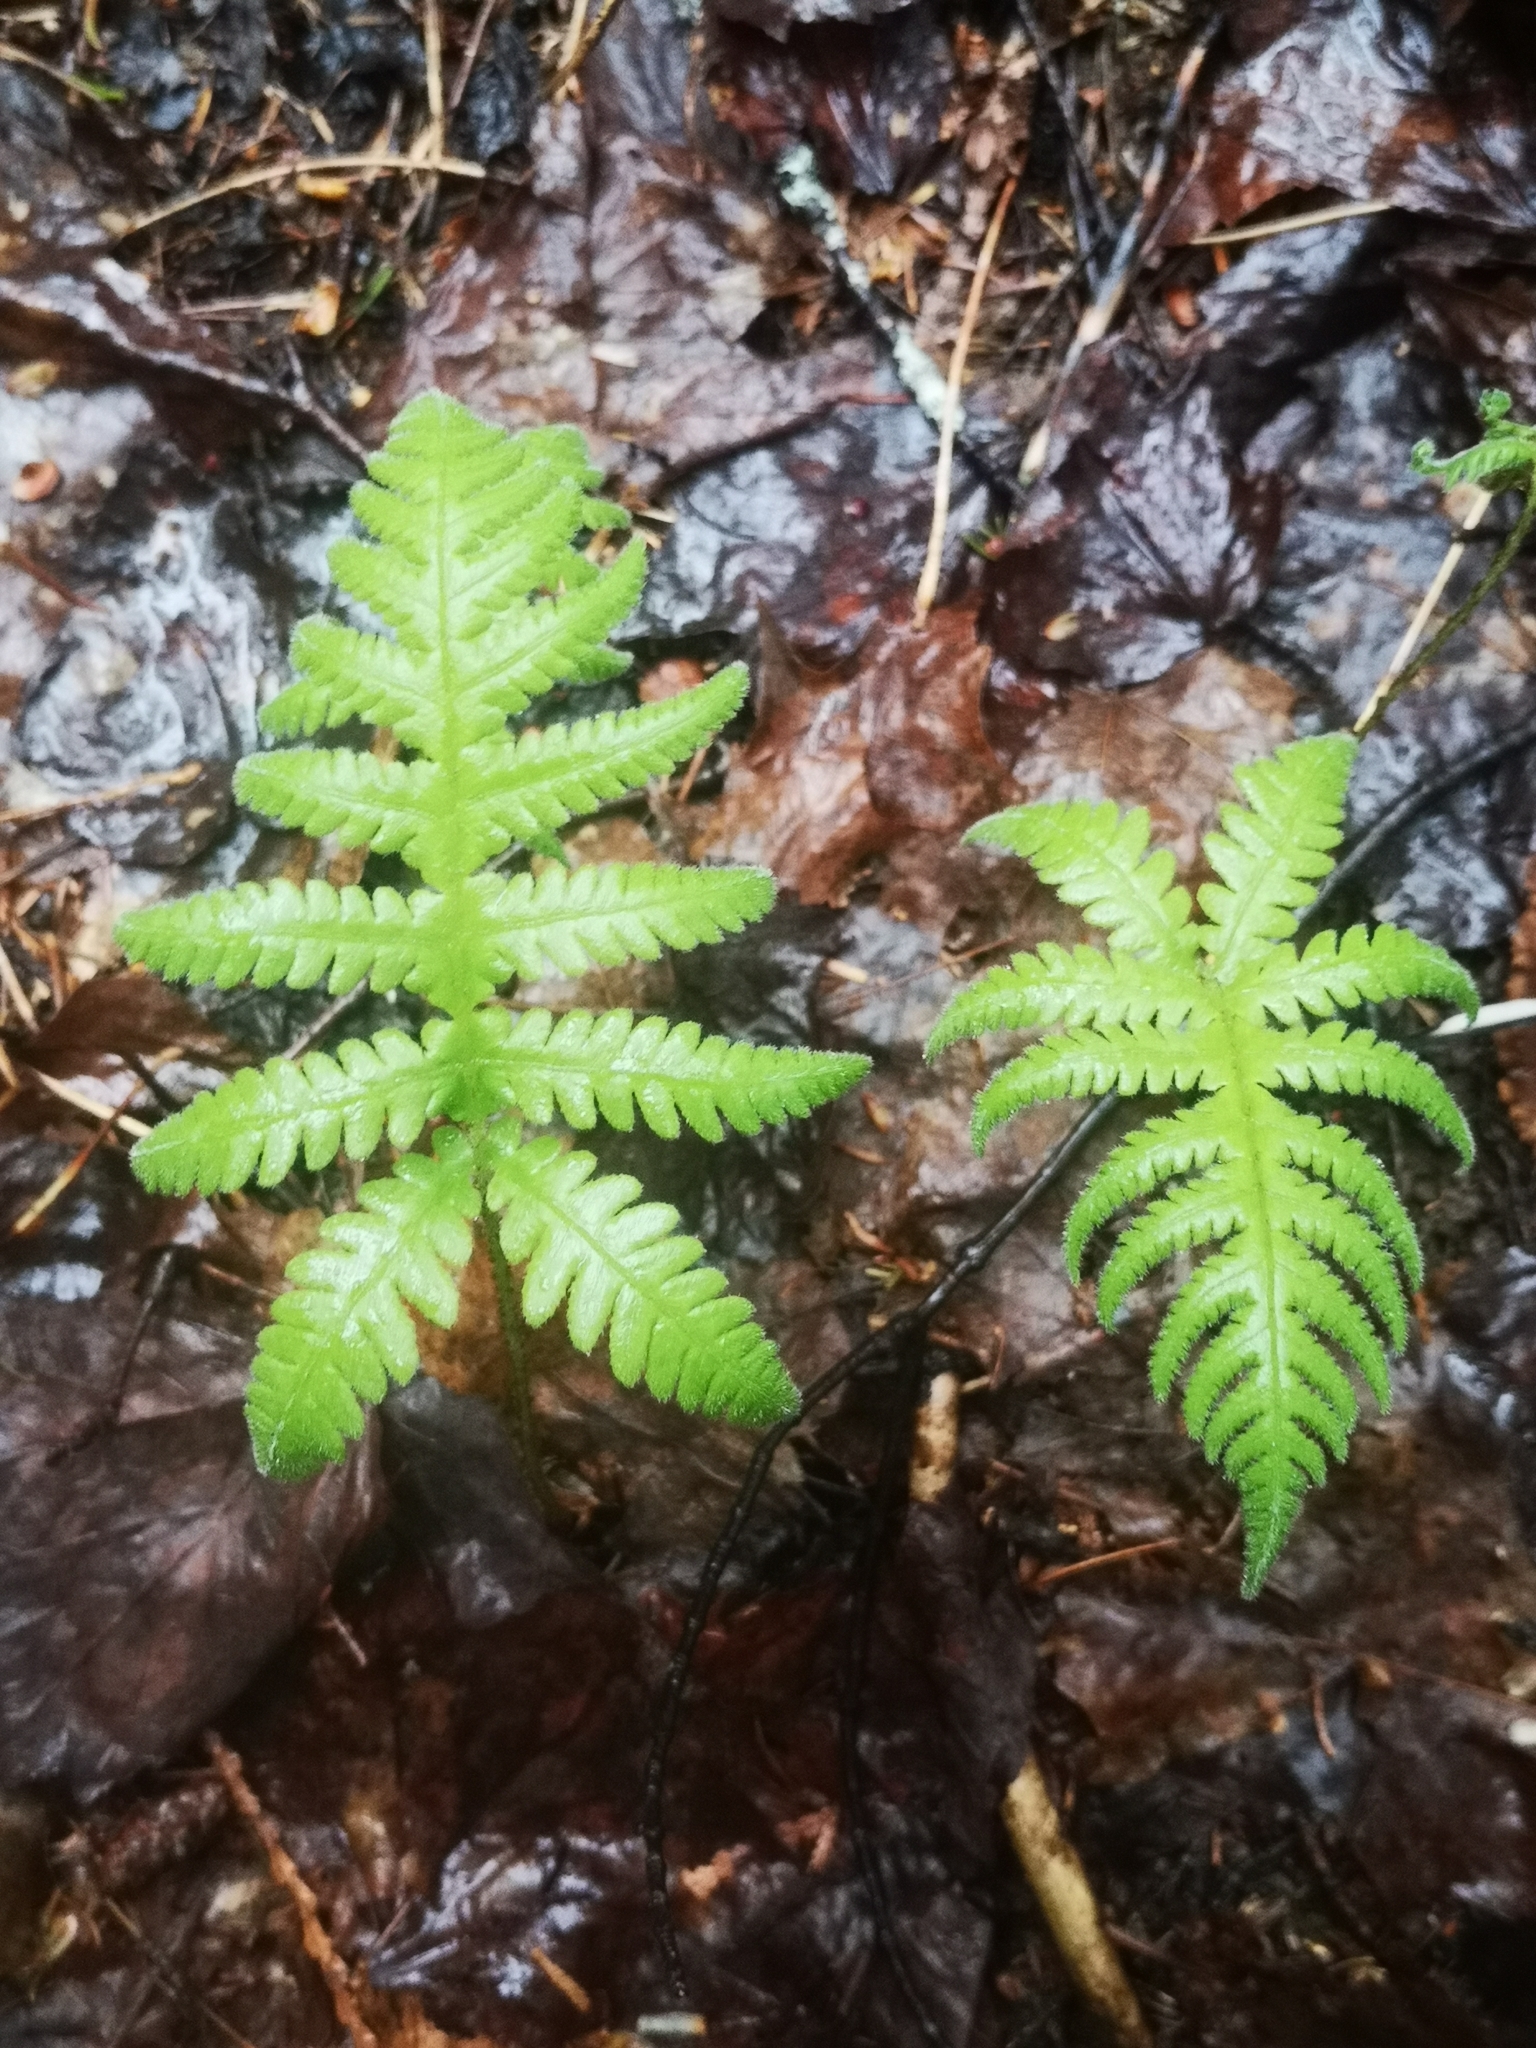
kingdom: Plantae
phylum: Tracheophyta
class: Polypodiopsida
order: Polypodiales
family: Thelypteridaceae
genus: Phegopteris
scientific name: Phegopteris connectilis
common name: Beech fern
